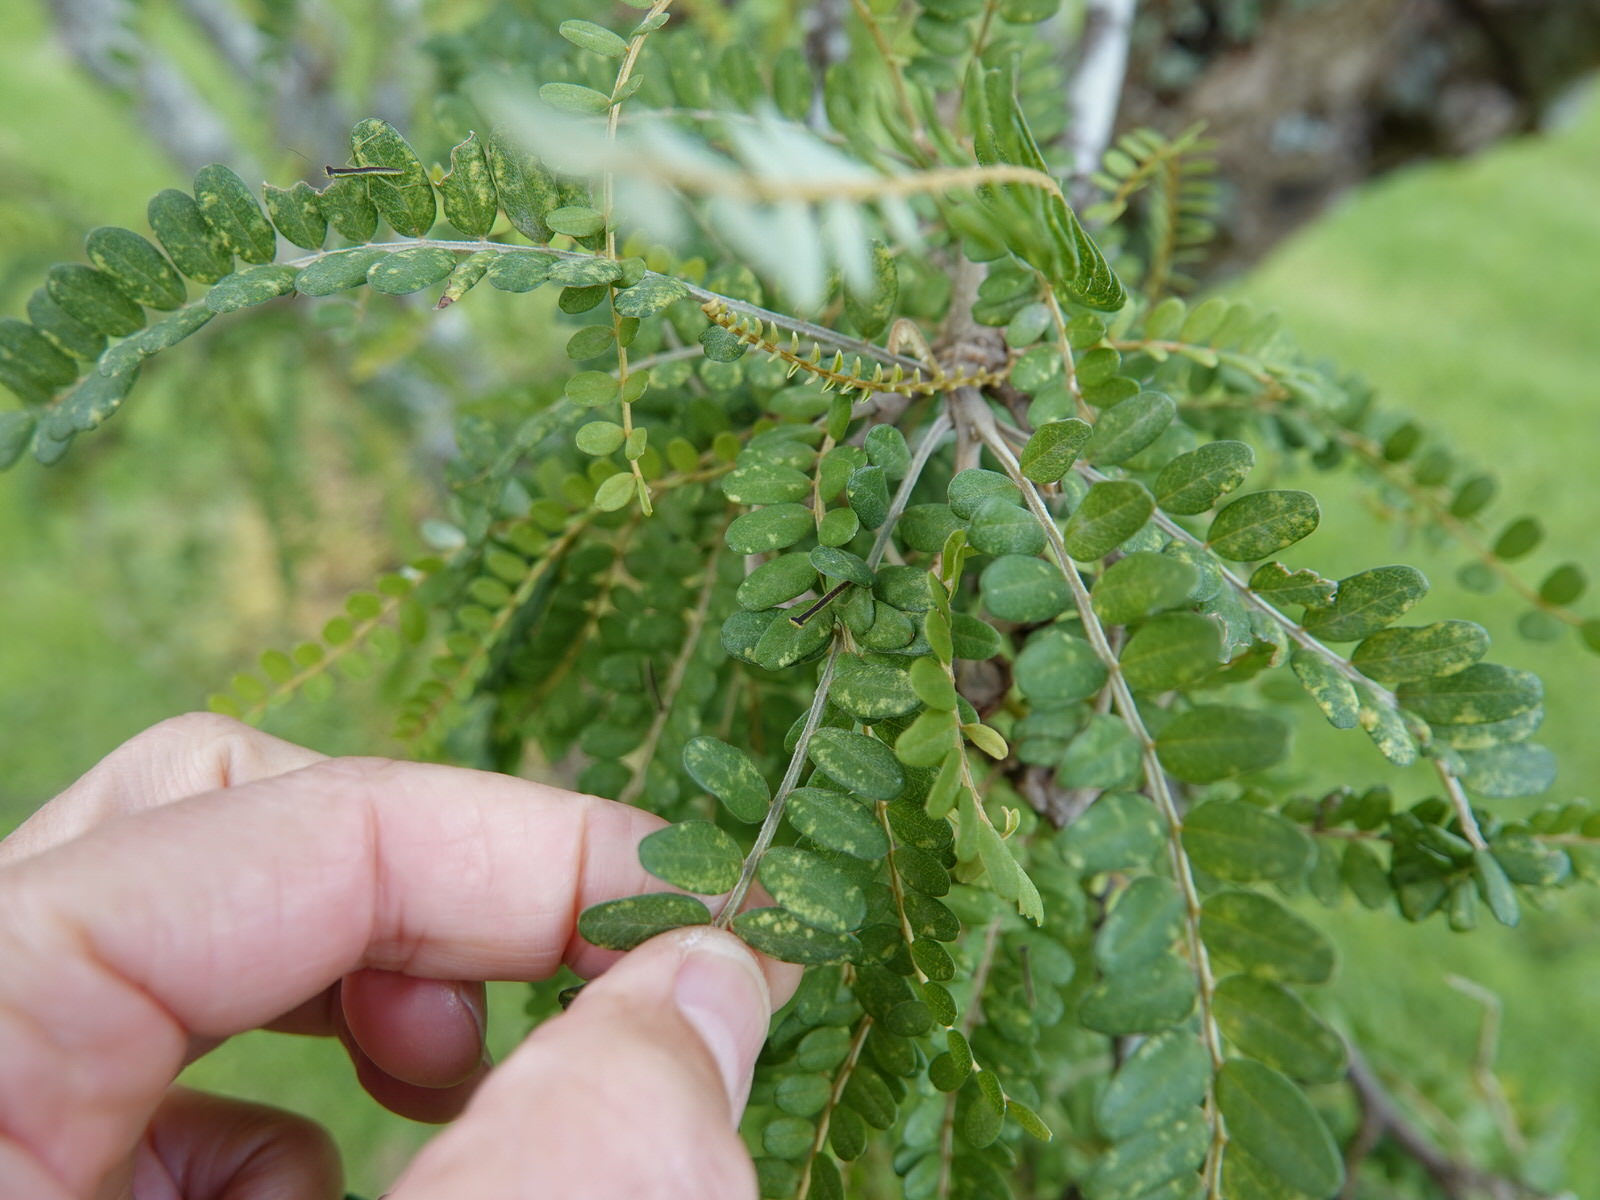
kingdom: Animalia
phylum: Arthropoda
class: Insecta
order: Mantodea
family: Mantidae
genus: Orthodera
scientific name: Orthodera novaezealandiae
